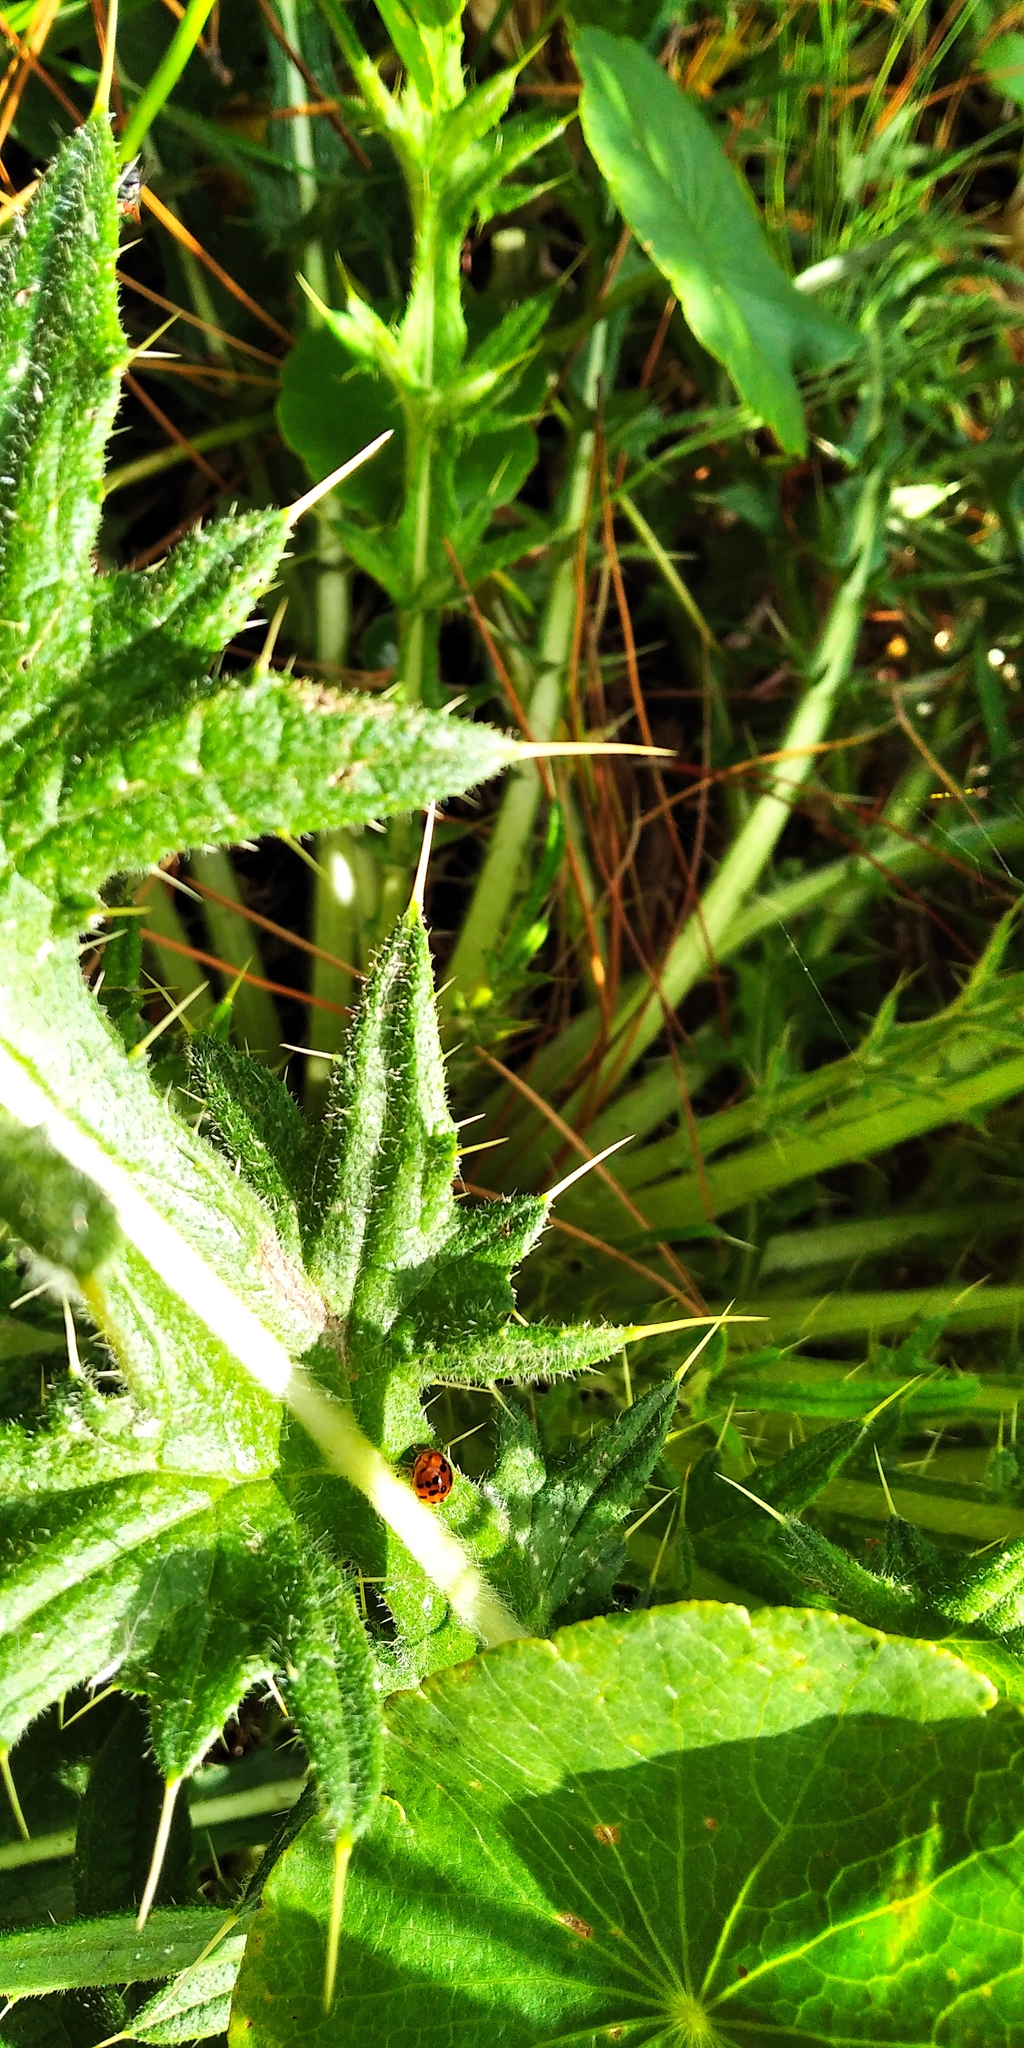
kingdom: Animalia
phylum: Arthropoda
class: Insecta
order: Coleoptera
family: Coccinellidae
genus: Harmonia
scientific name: Harmonia axyridis
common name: Harlequin ladybird
